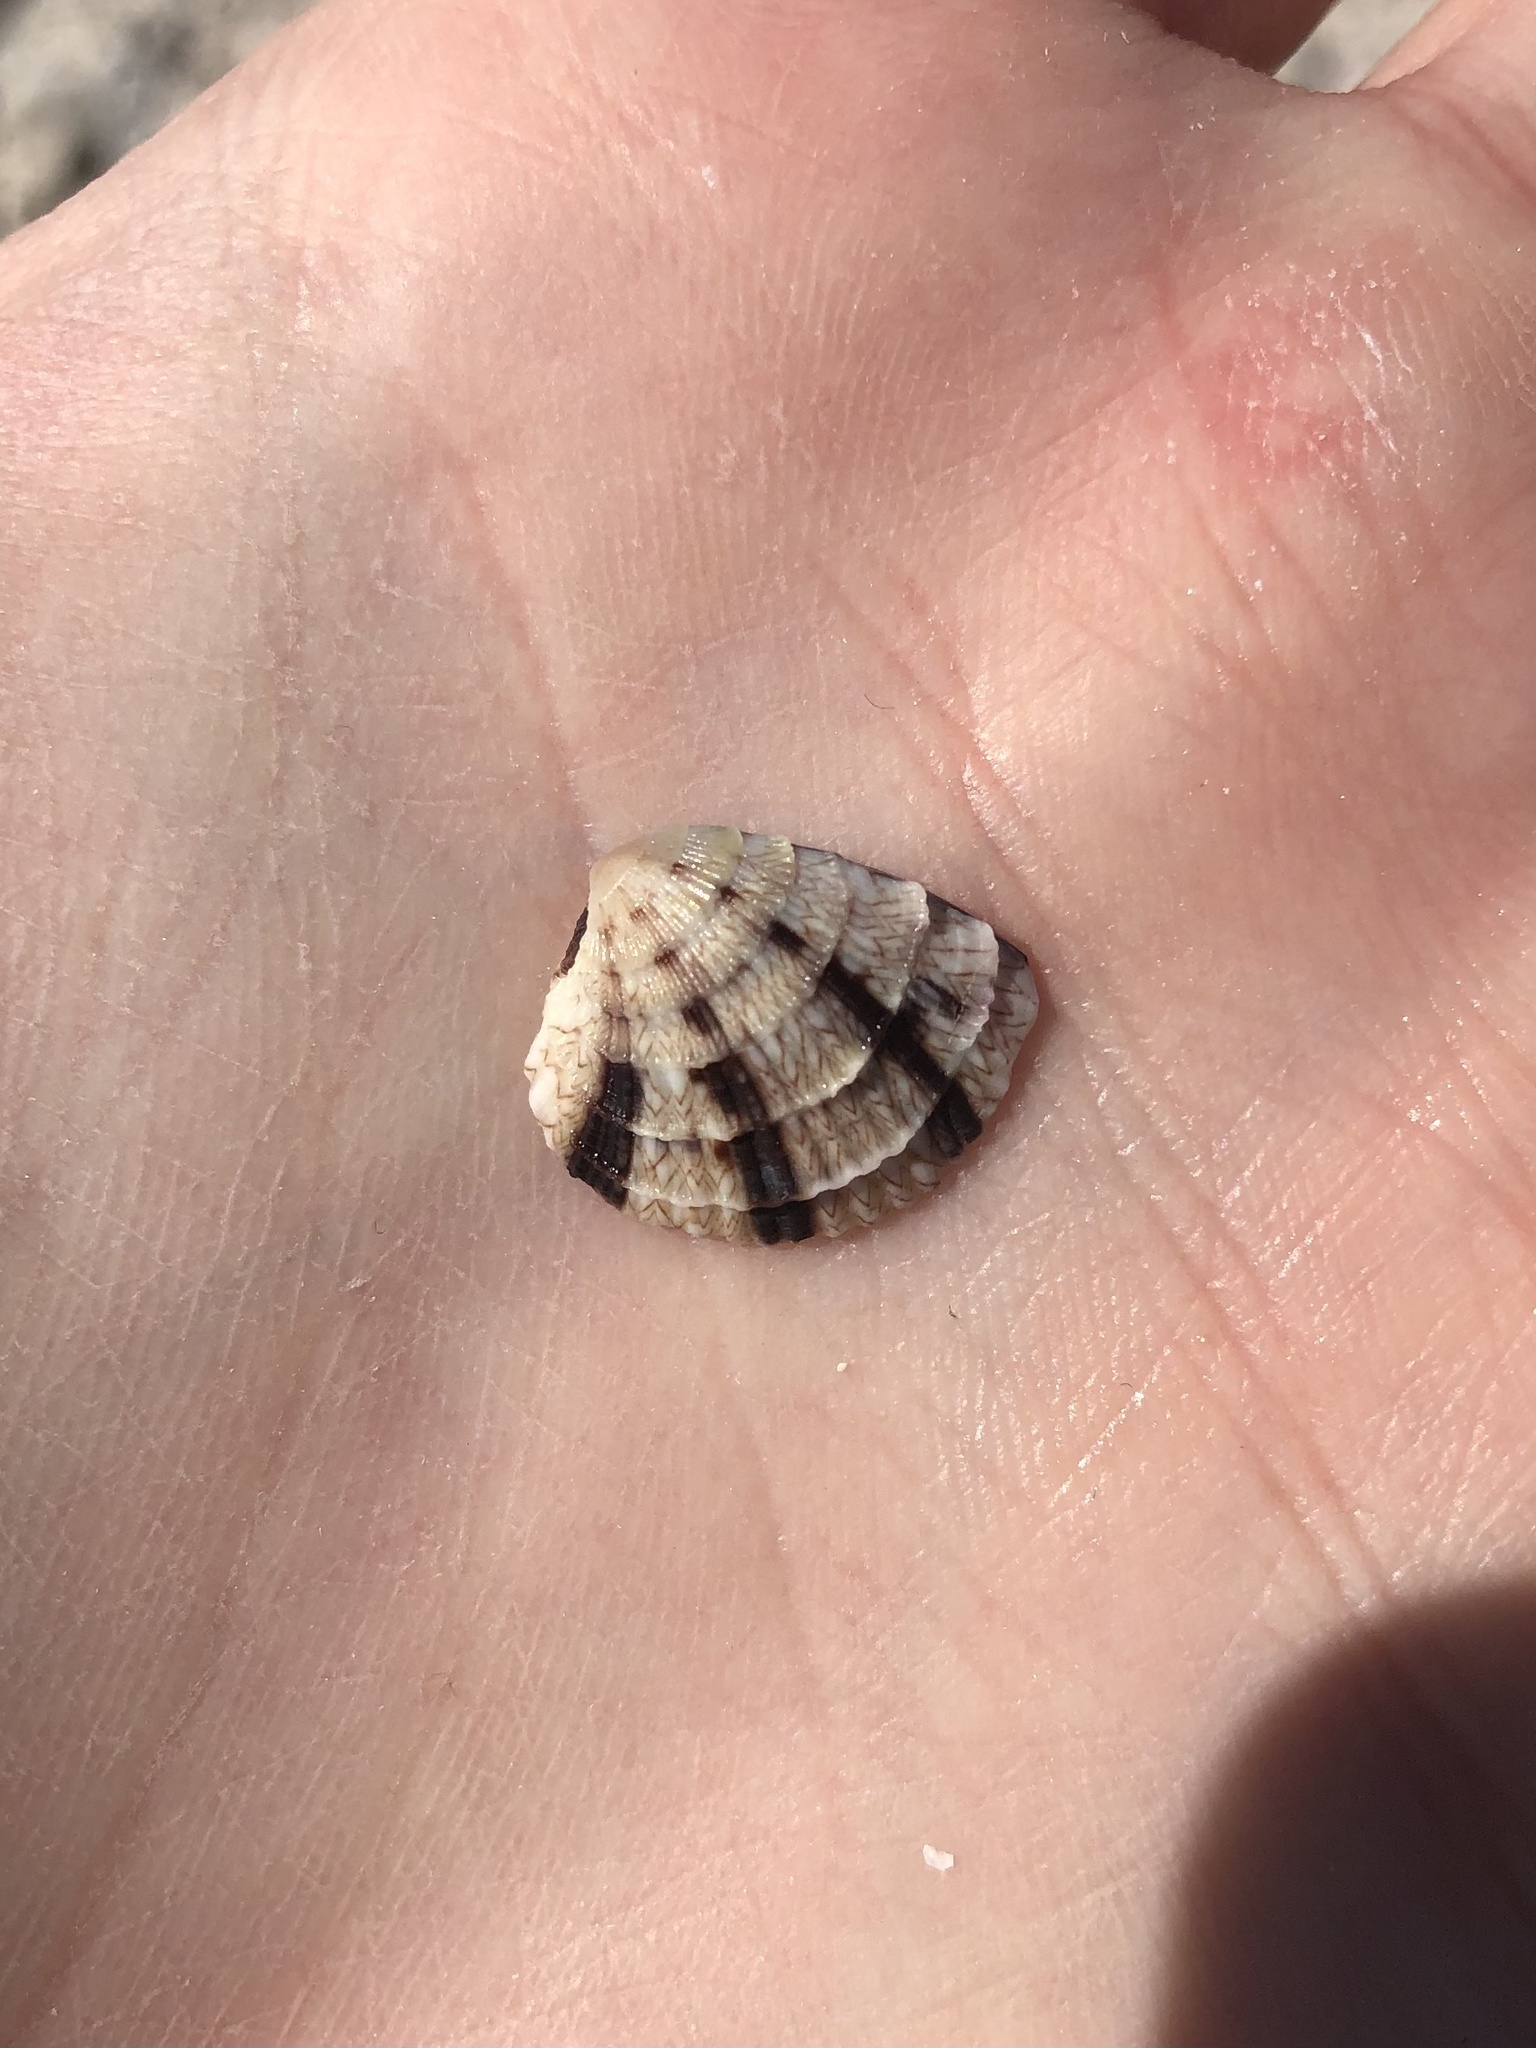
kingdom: Animalia
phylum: Mollusca
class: Bivalvia
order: Venerida
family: Veneridae
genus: Chione
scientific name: Chione elevata
